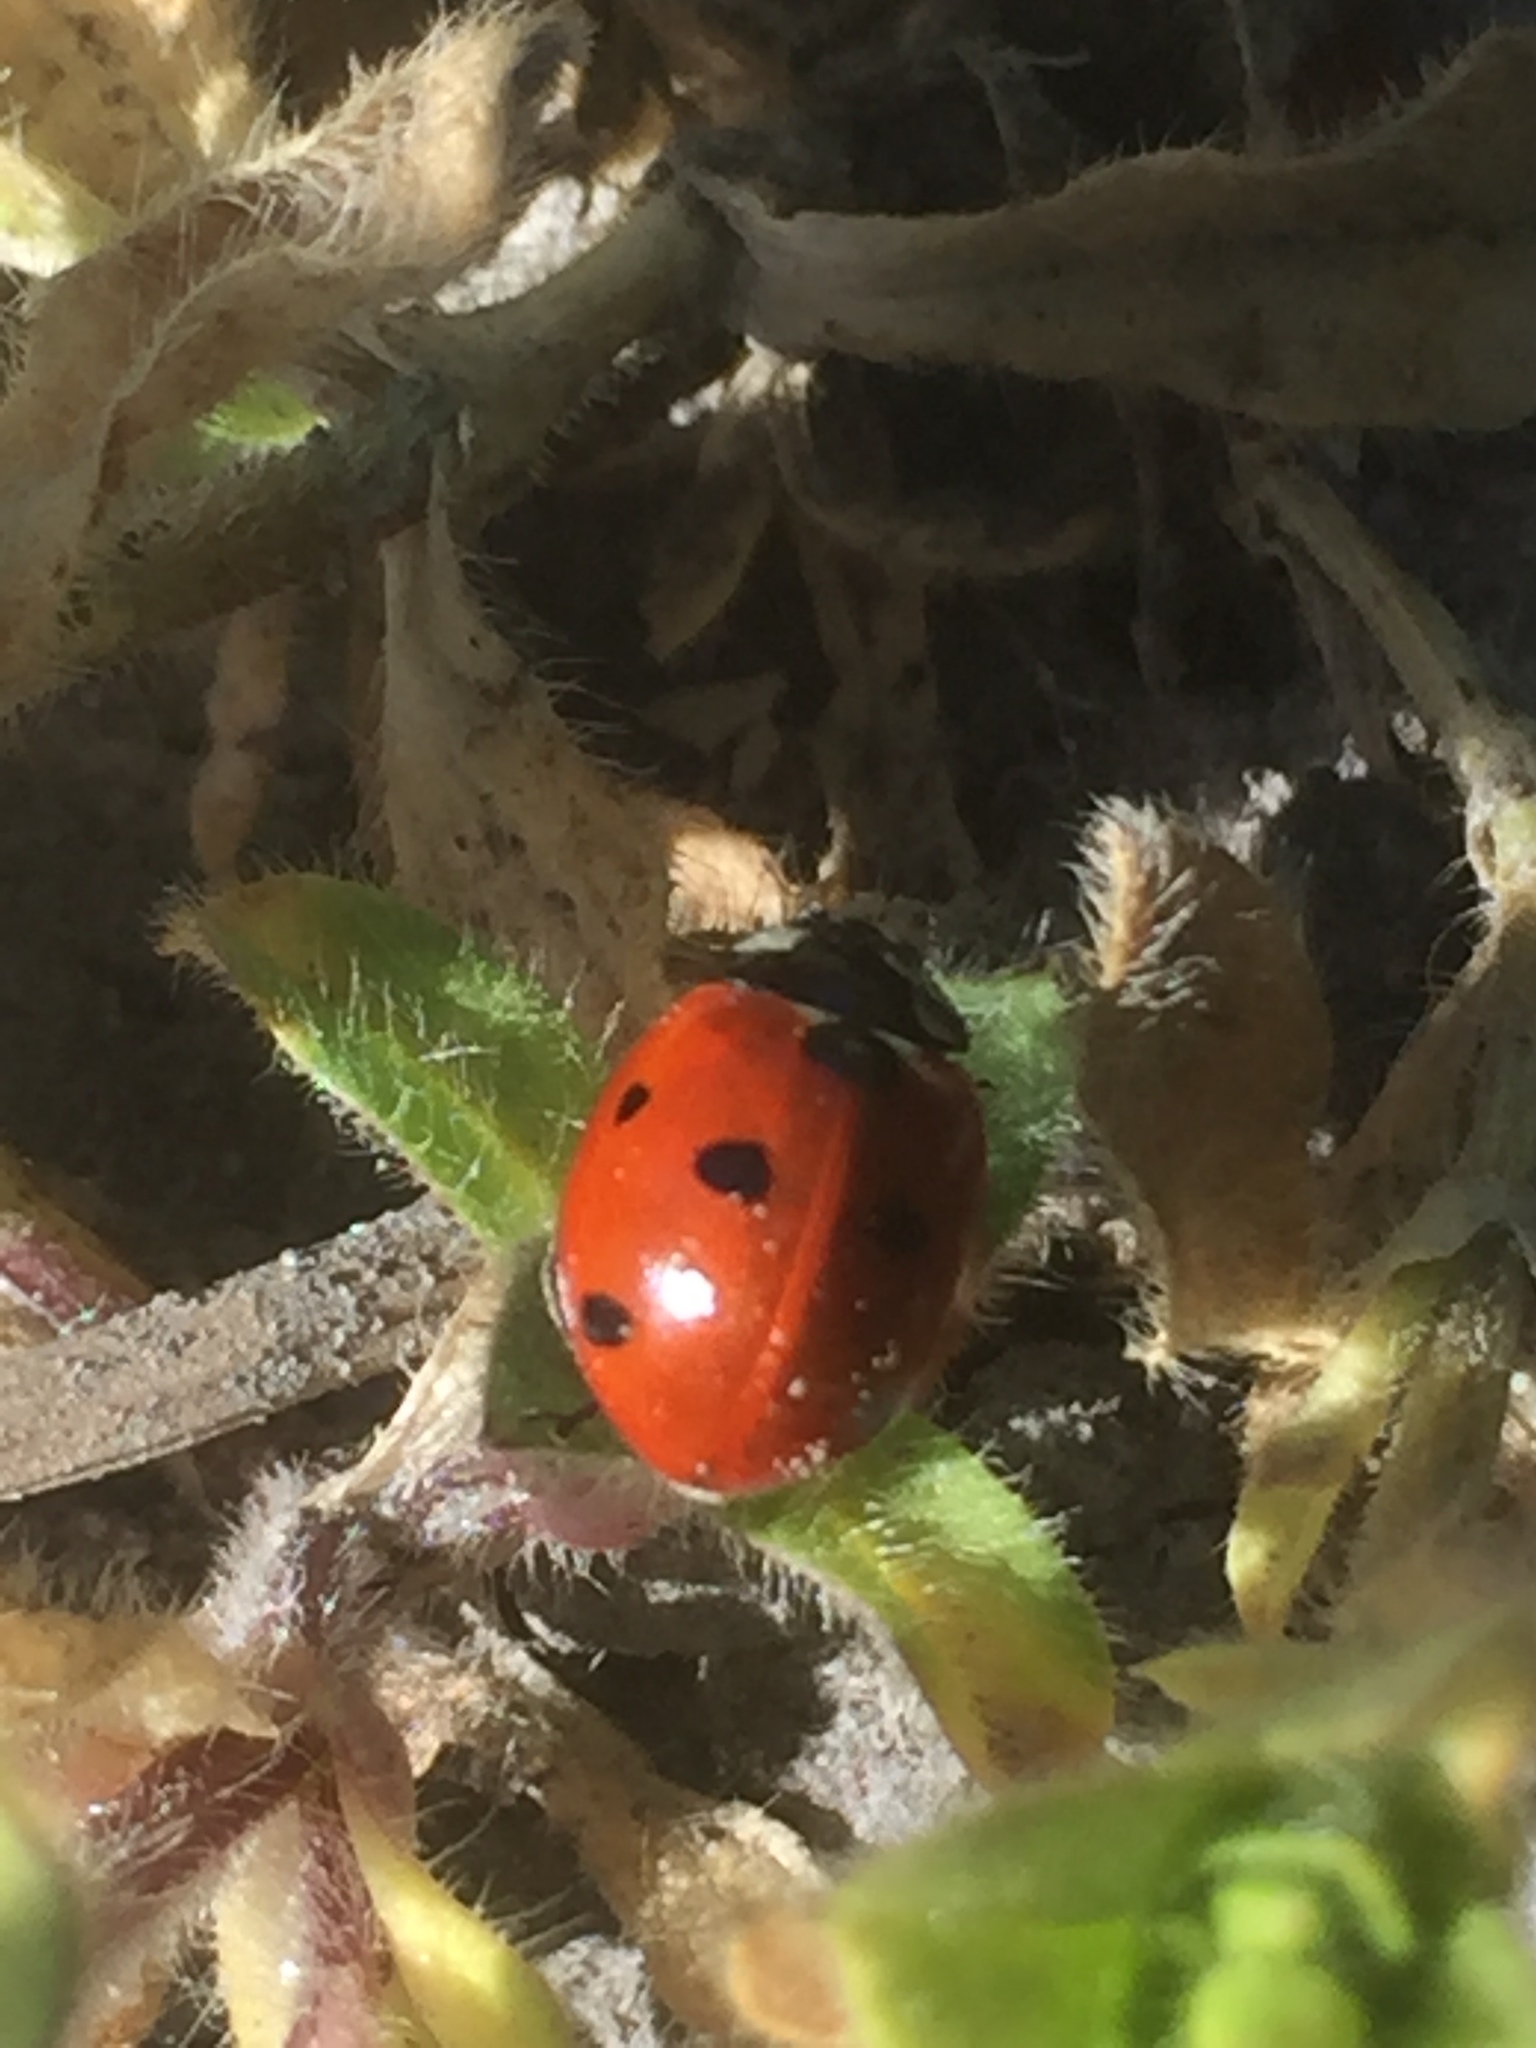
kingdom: Animalia
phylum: Arthropoda
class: Insecta
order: Coleoptera
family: Coccinellidae
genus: Coccinella
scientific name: Coccinella septempunctata
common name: Sevenspotted lady beetle
